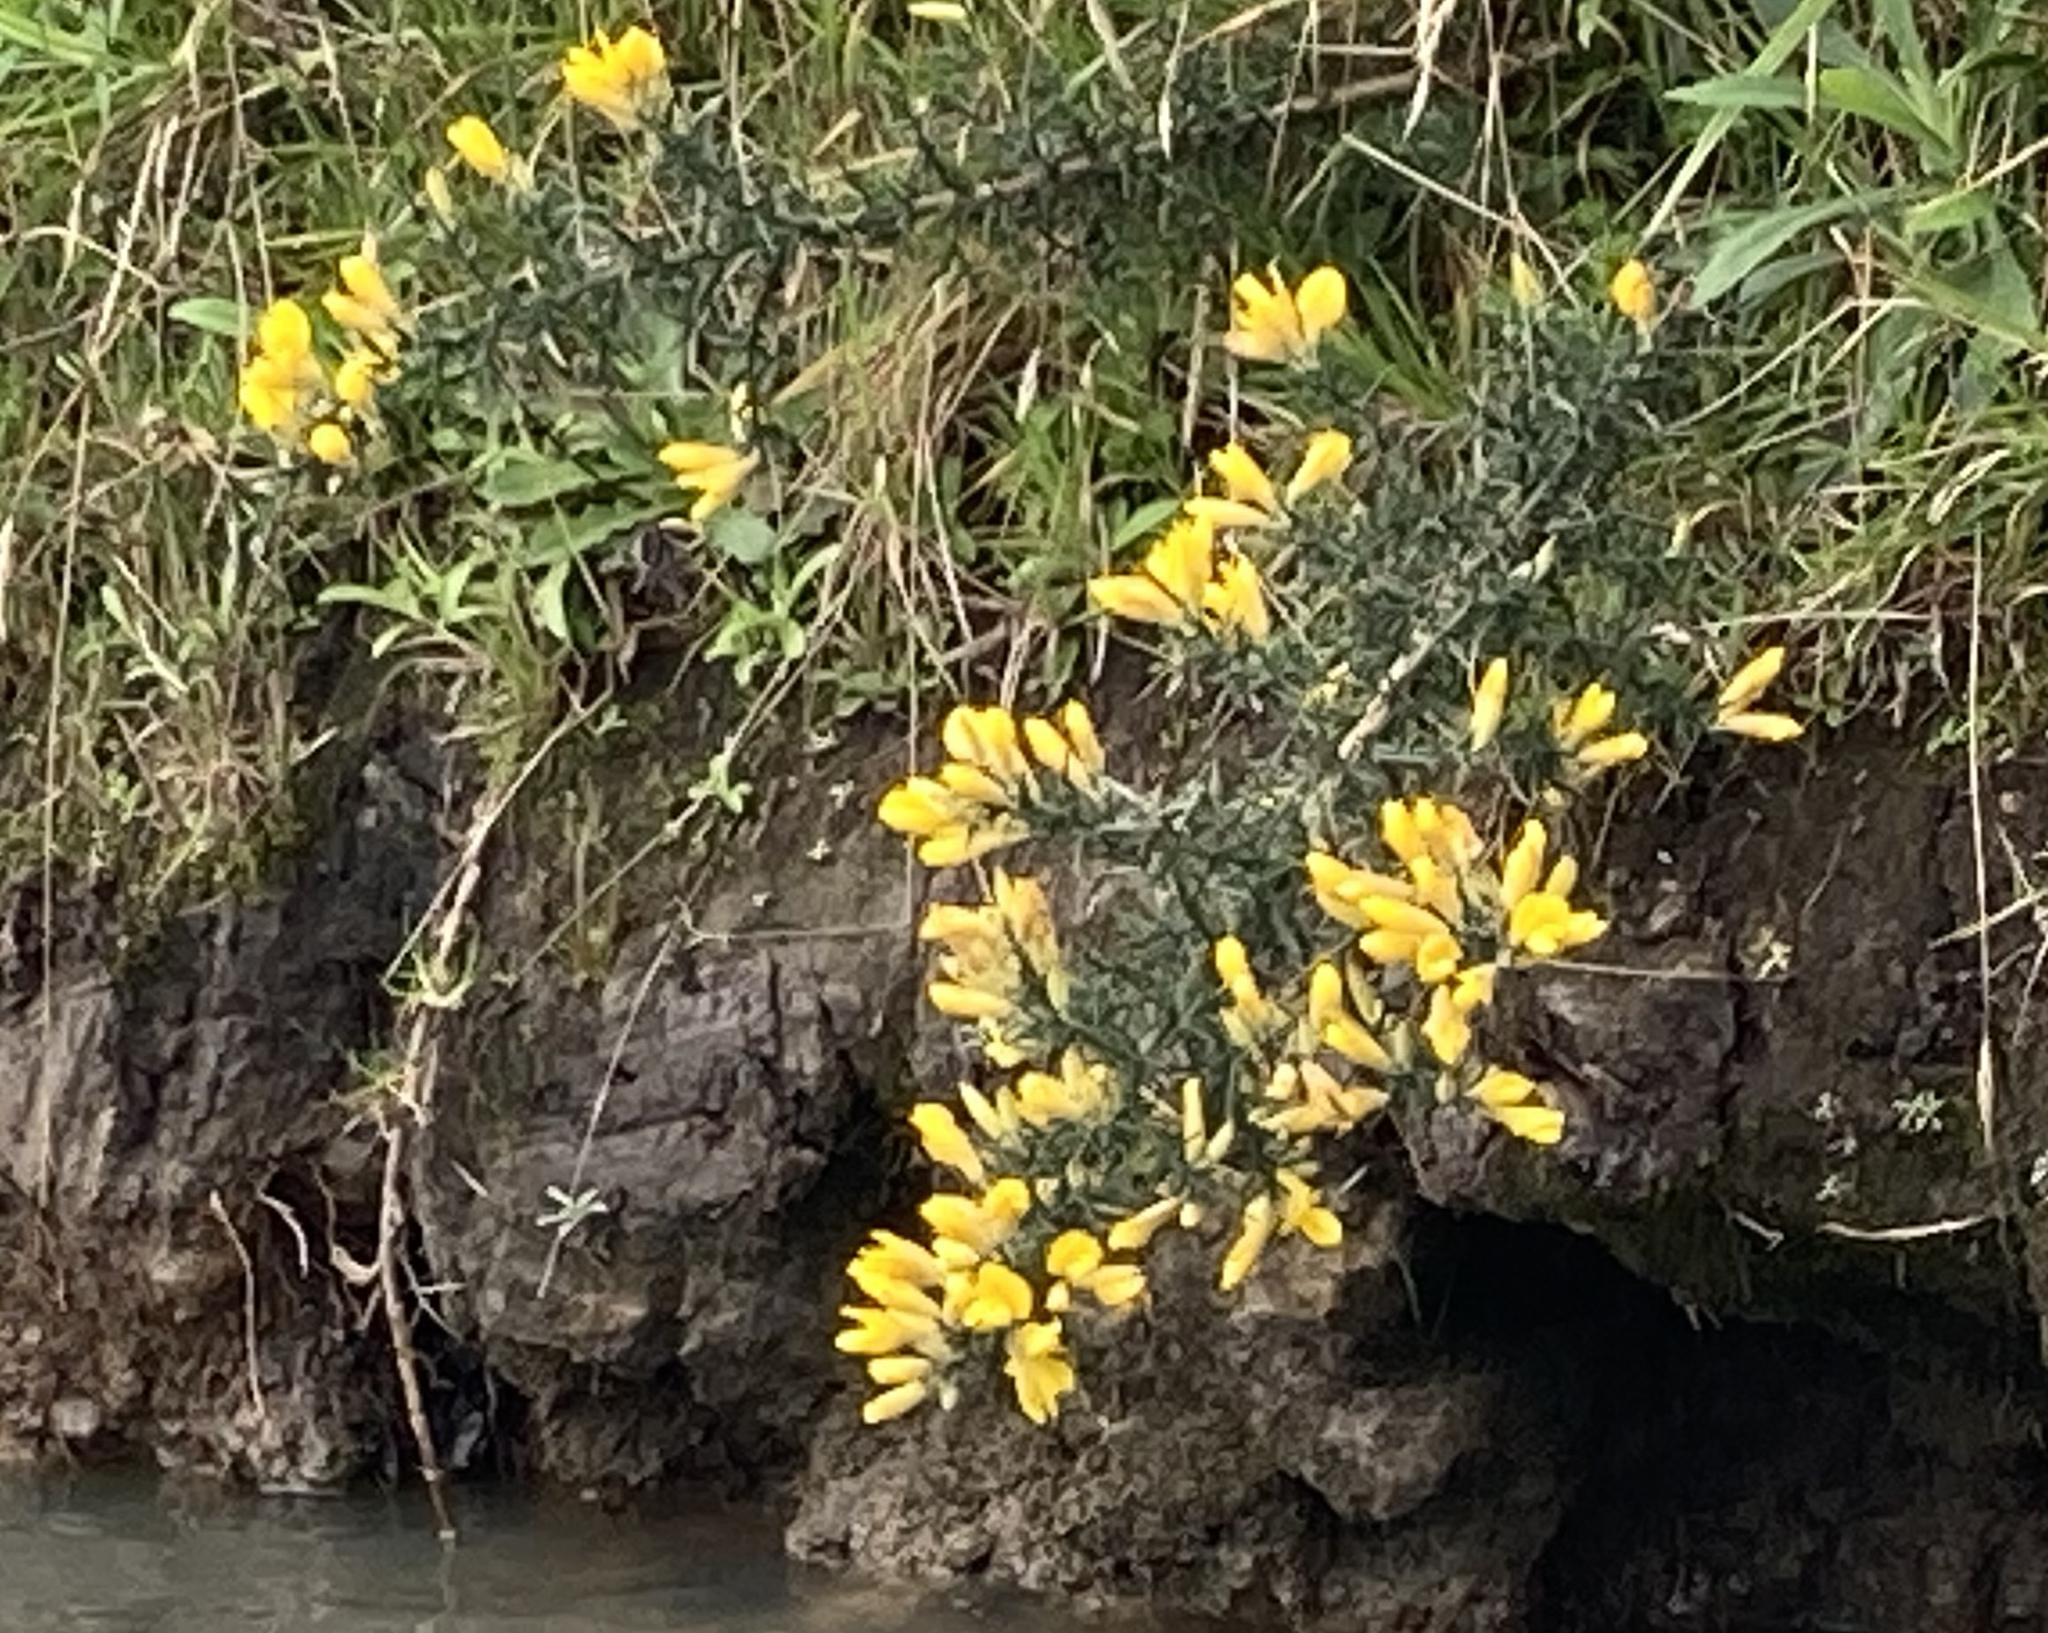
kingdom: Plantae
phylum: Tracheophyta
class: Magnoliopsida
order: Fabales
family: Fabaceae
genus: Ulex
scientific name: Ulex europaeus
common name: Common gorse
